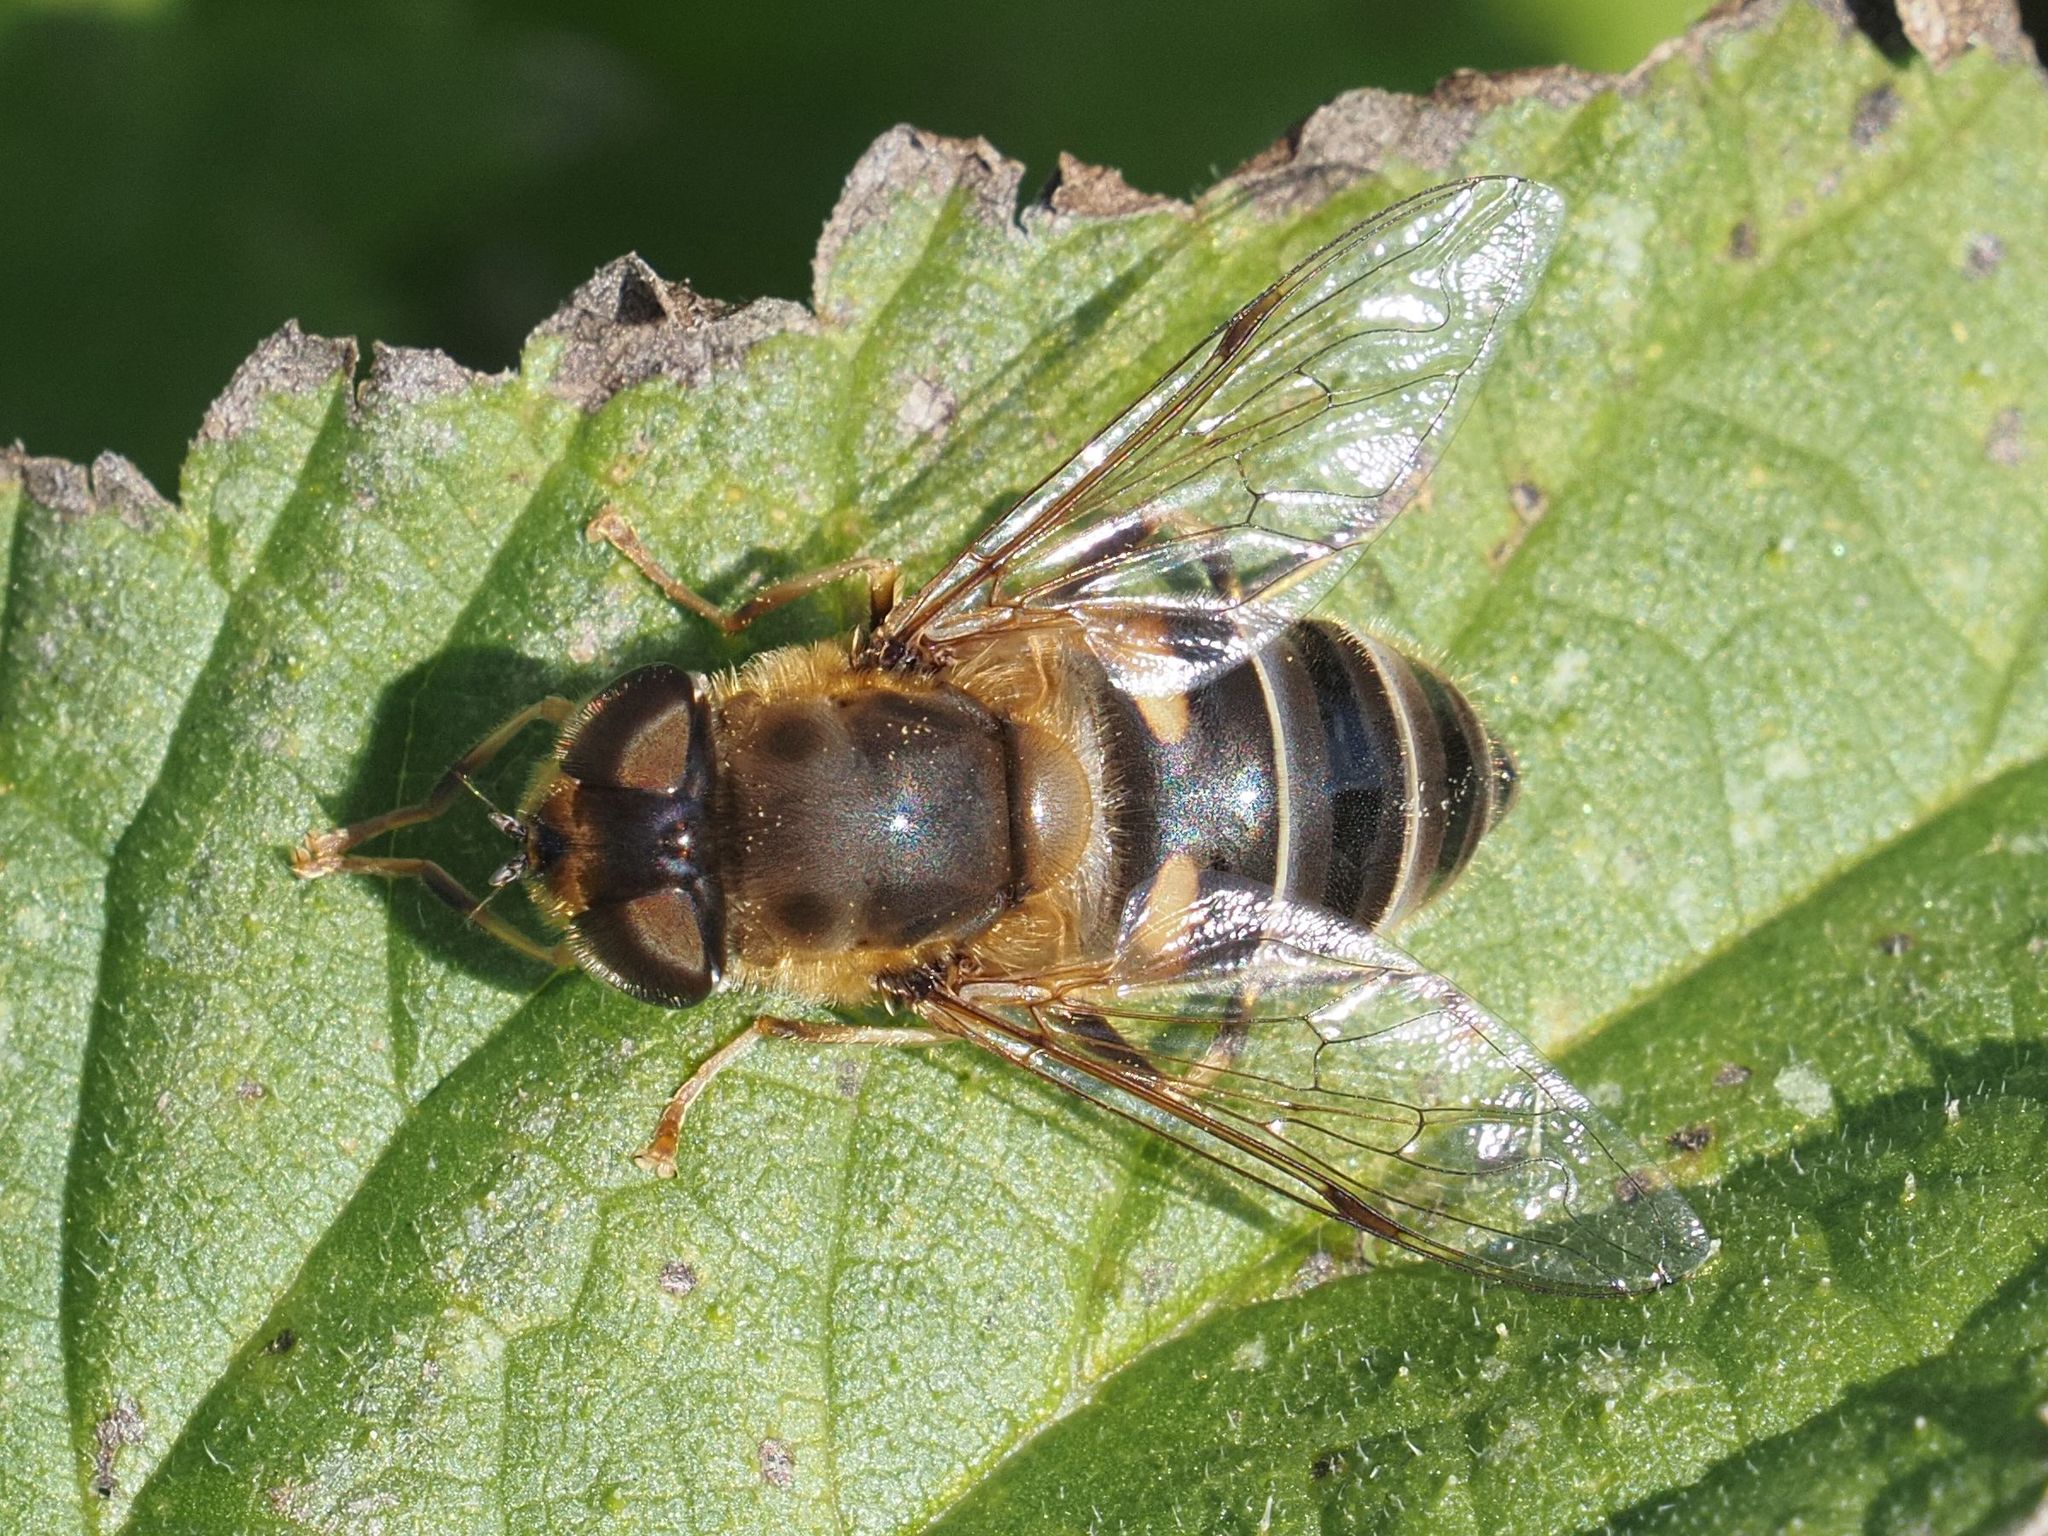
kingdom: Animalia
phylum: Arthropoda
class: Insecta
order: Diptera
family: Syrphidae
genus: Eristalis
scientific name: Eristalis pertinax
